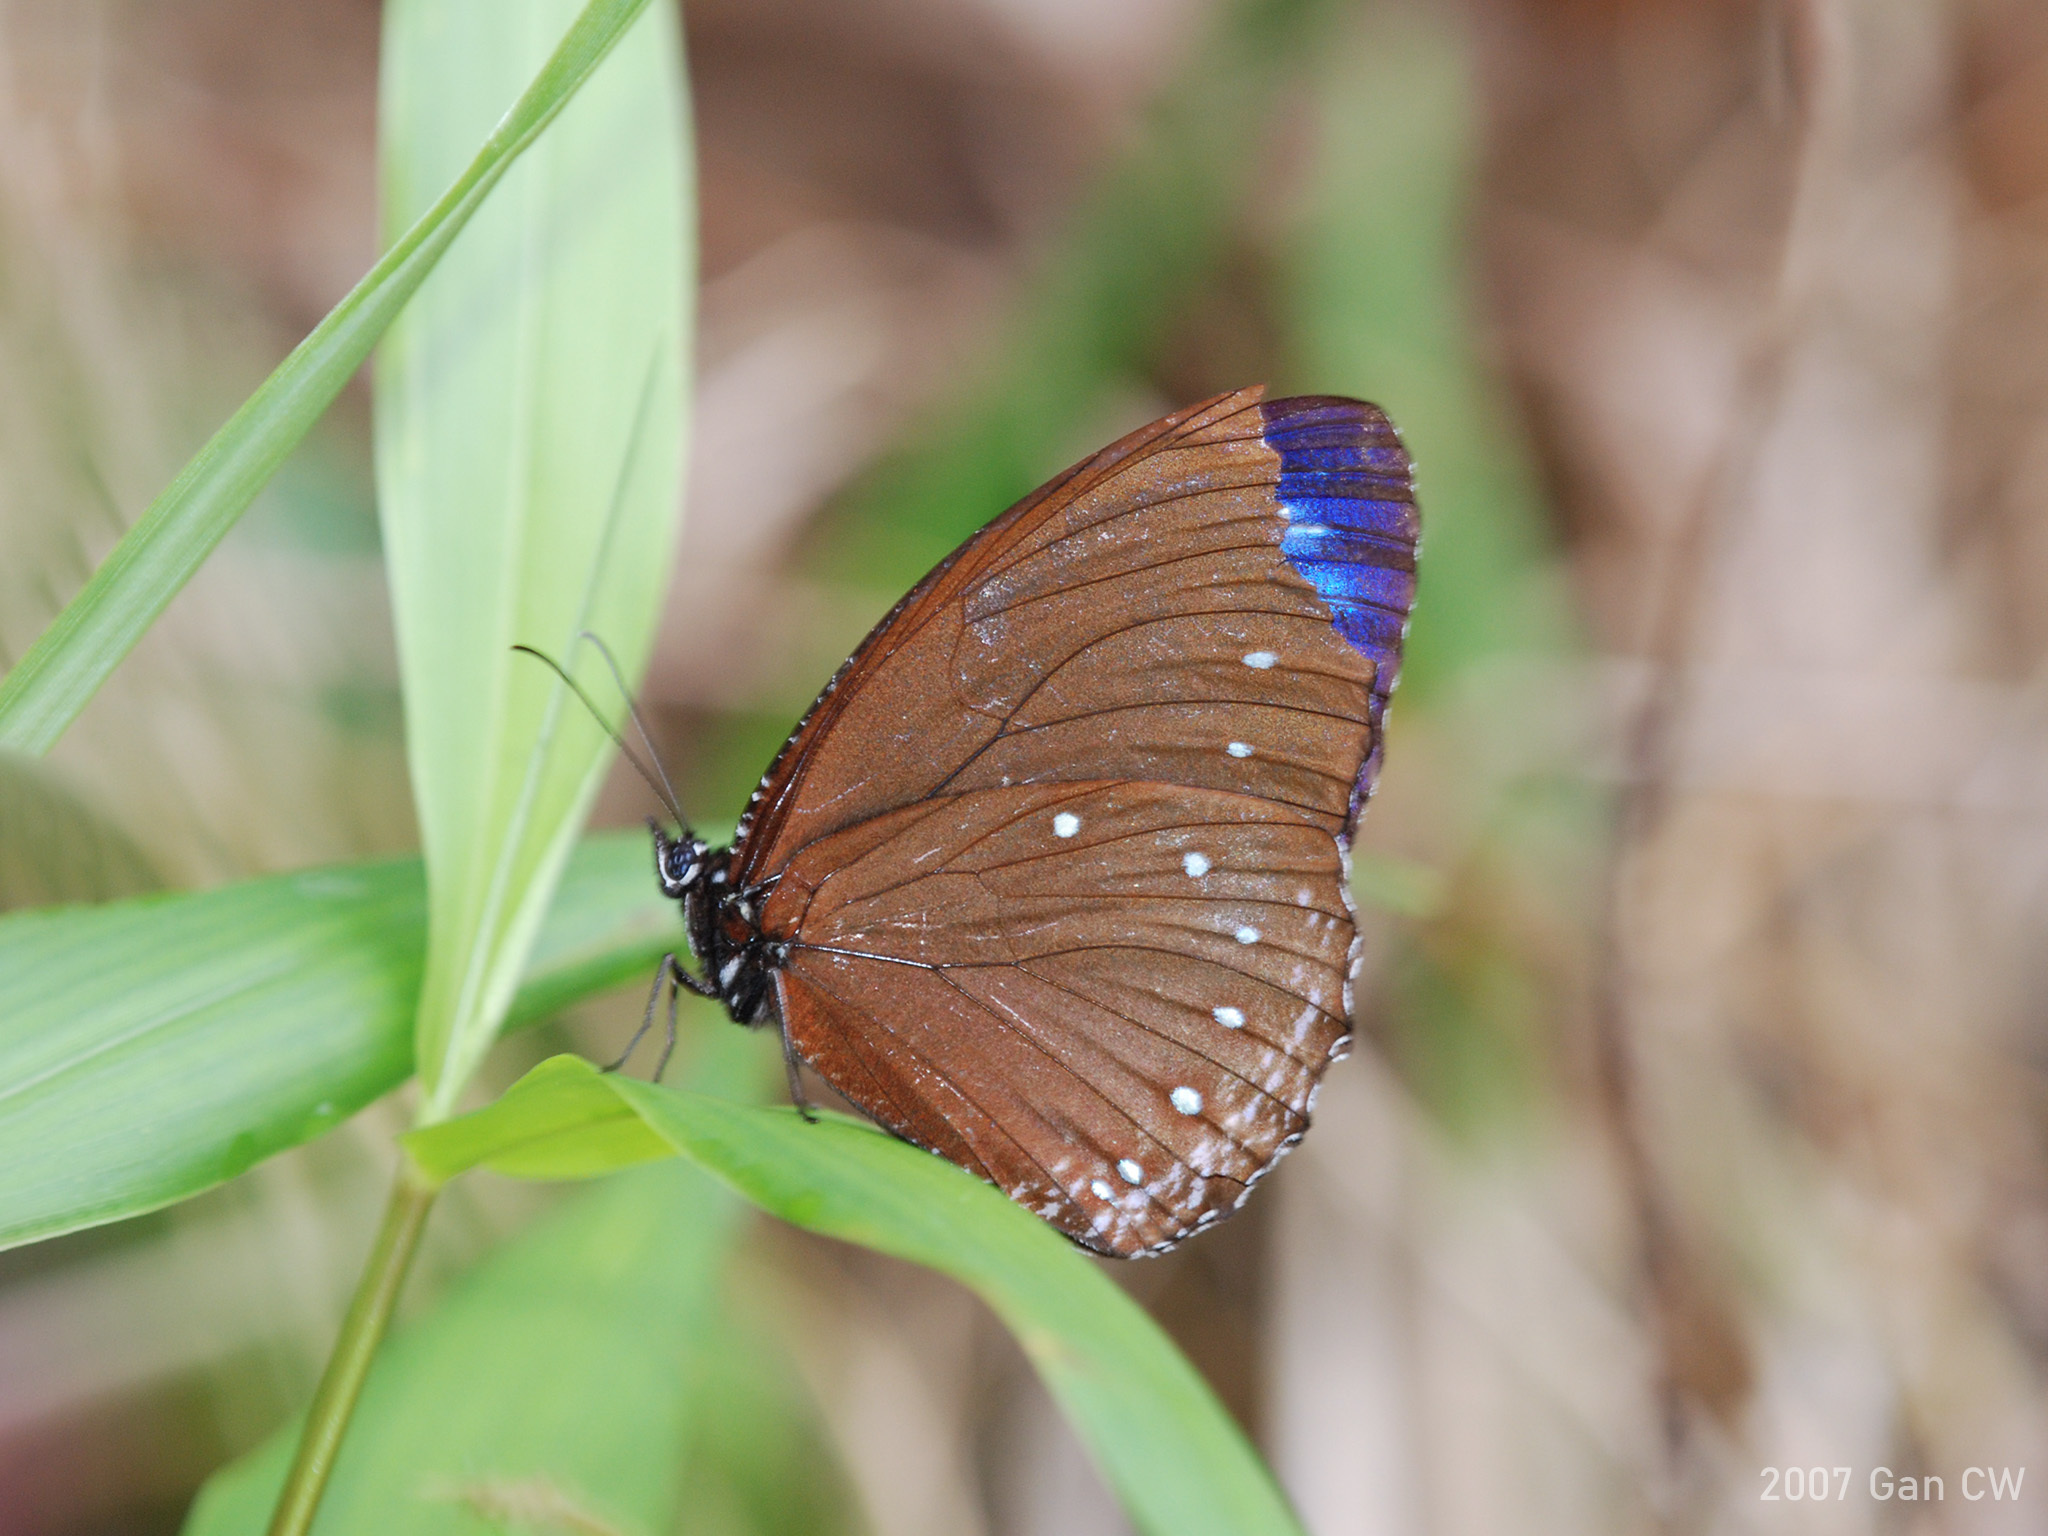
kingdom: Animalia
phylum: Arthropoda
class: Insecta
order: Lepidoptera
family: Nymphalidae
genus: Elymnias
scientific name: Elymnias patna
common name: Blue-striped palmfly
